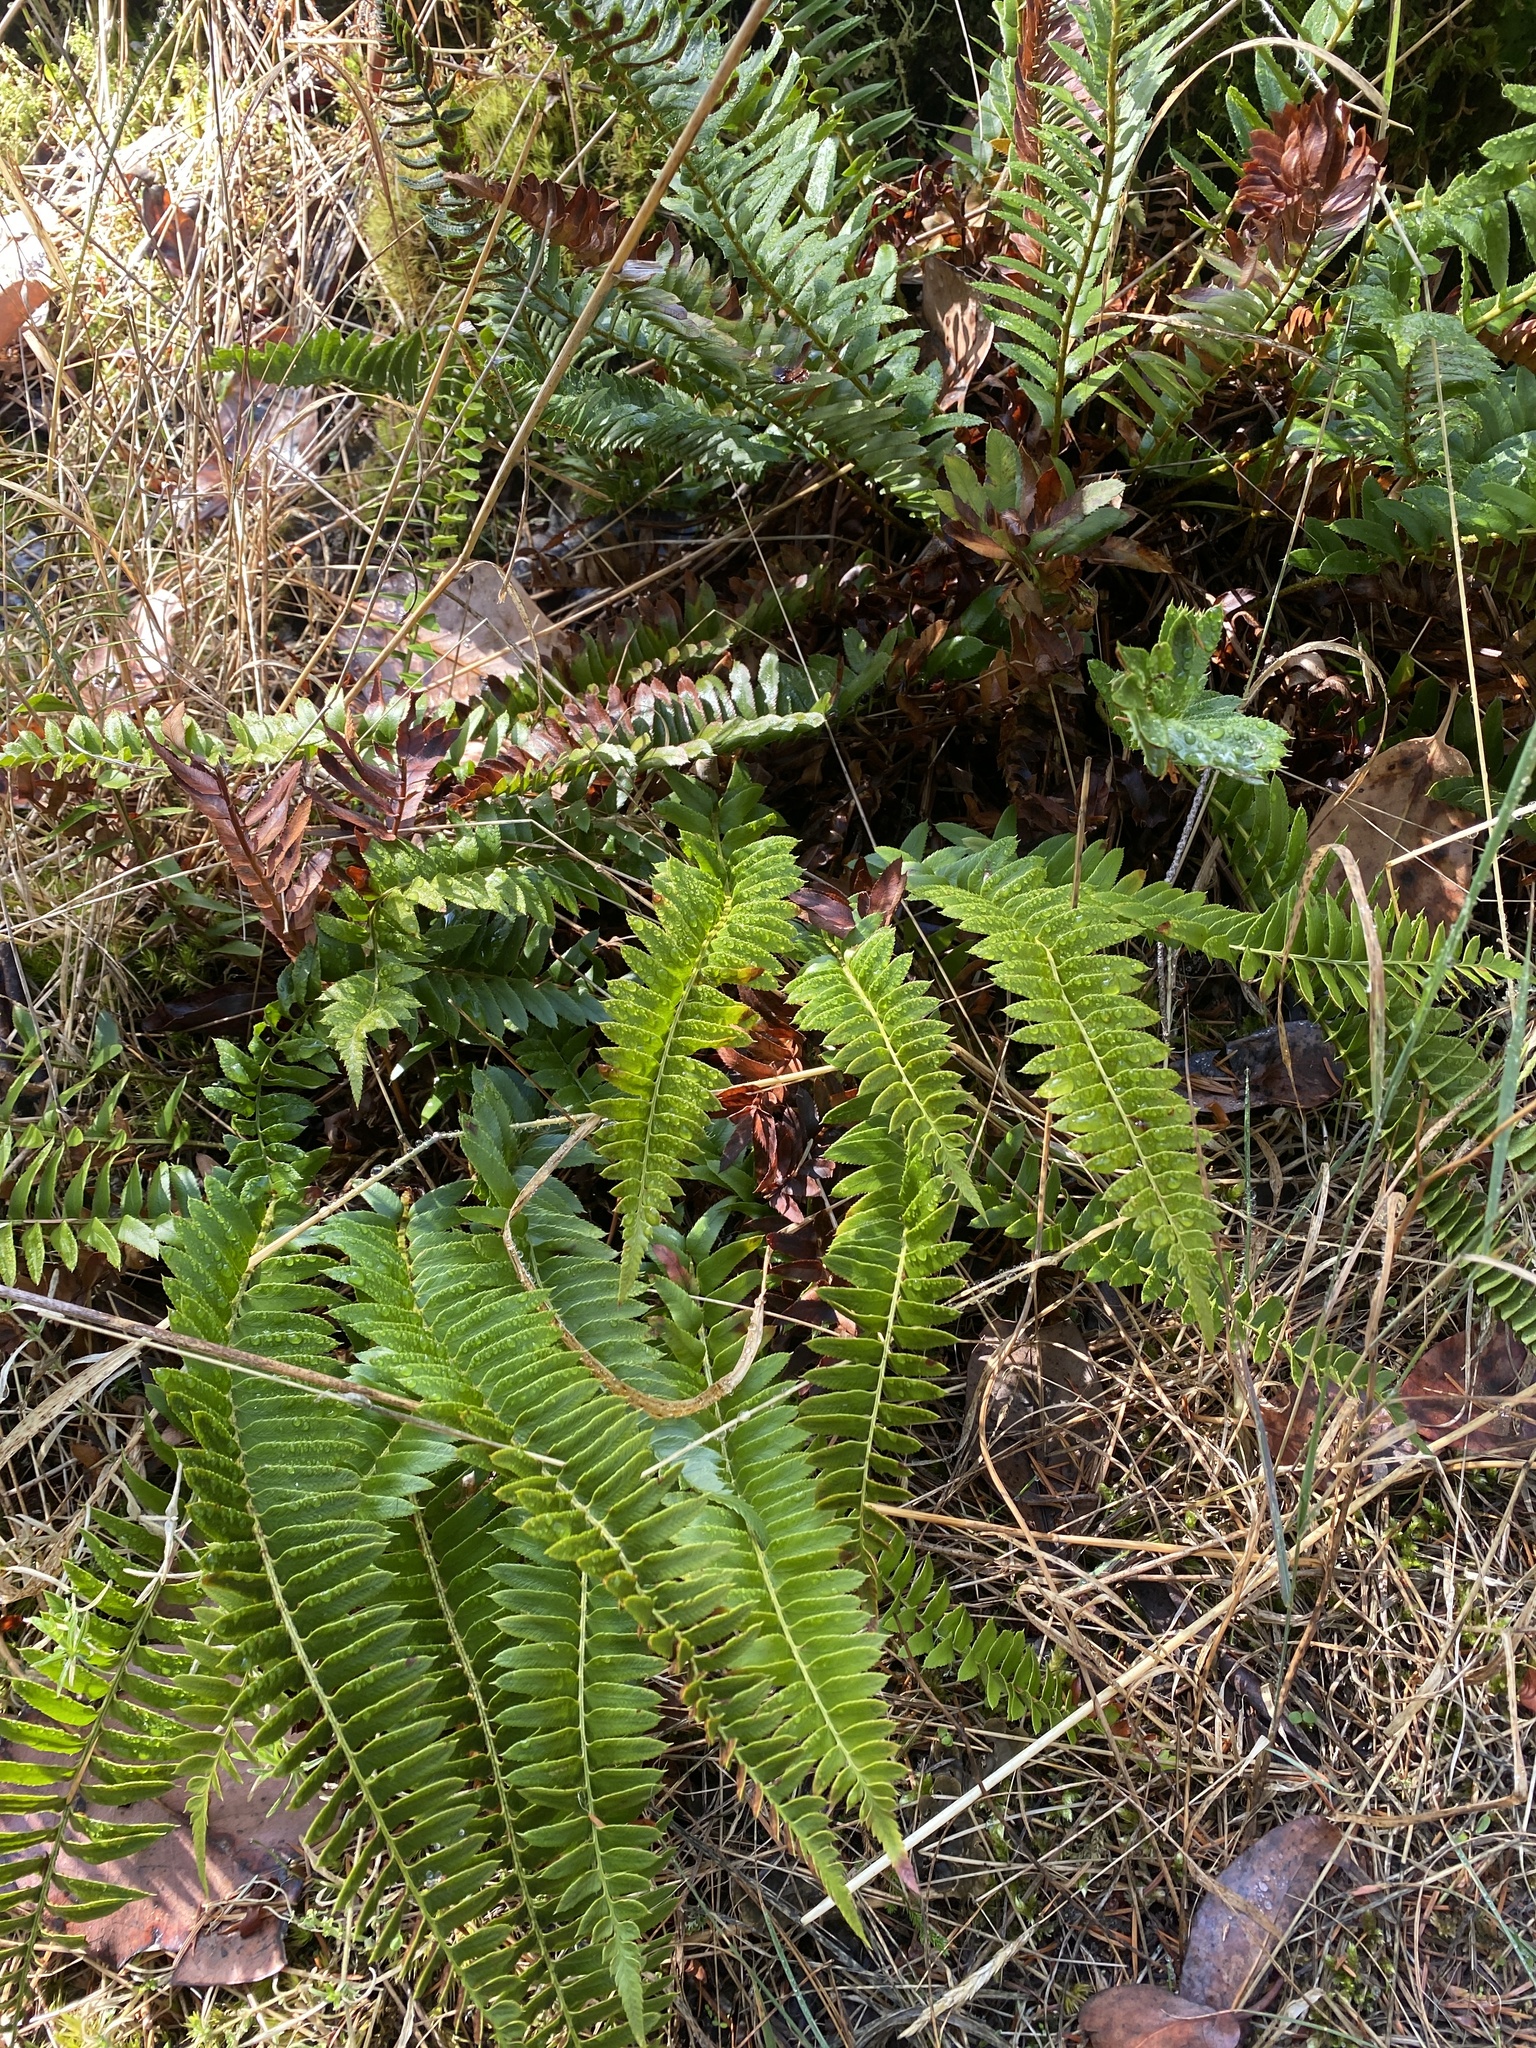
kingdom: Plantae
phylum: Tracheophyta
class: Polypodiopsida
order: Polypodiales
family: Dryopteridaceae
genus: Polystichum
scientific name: Polystichum imbricans
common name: Dwarf western sword fern
